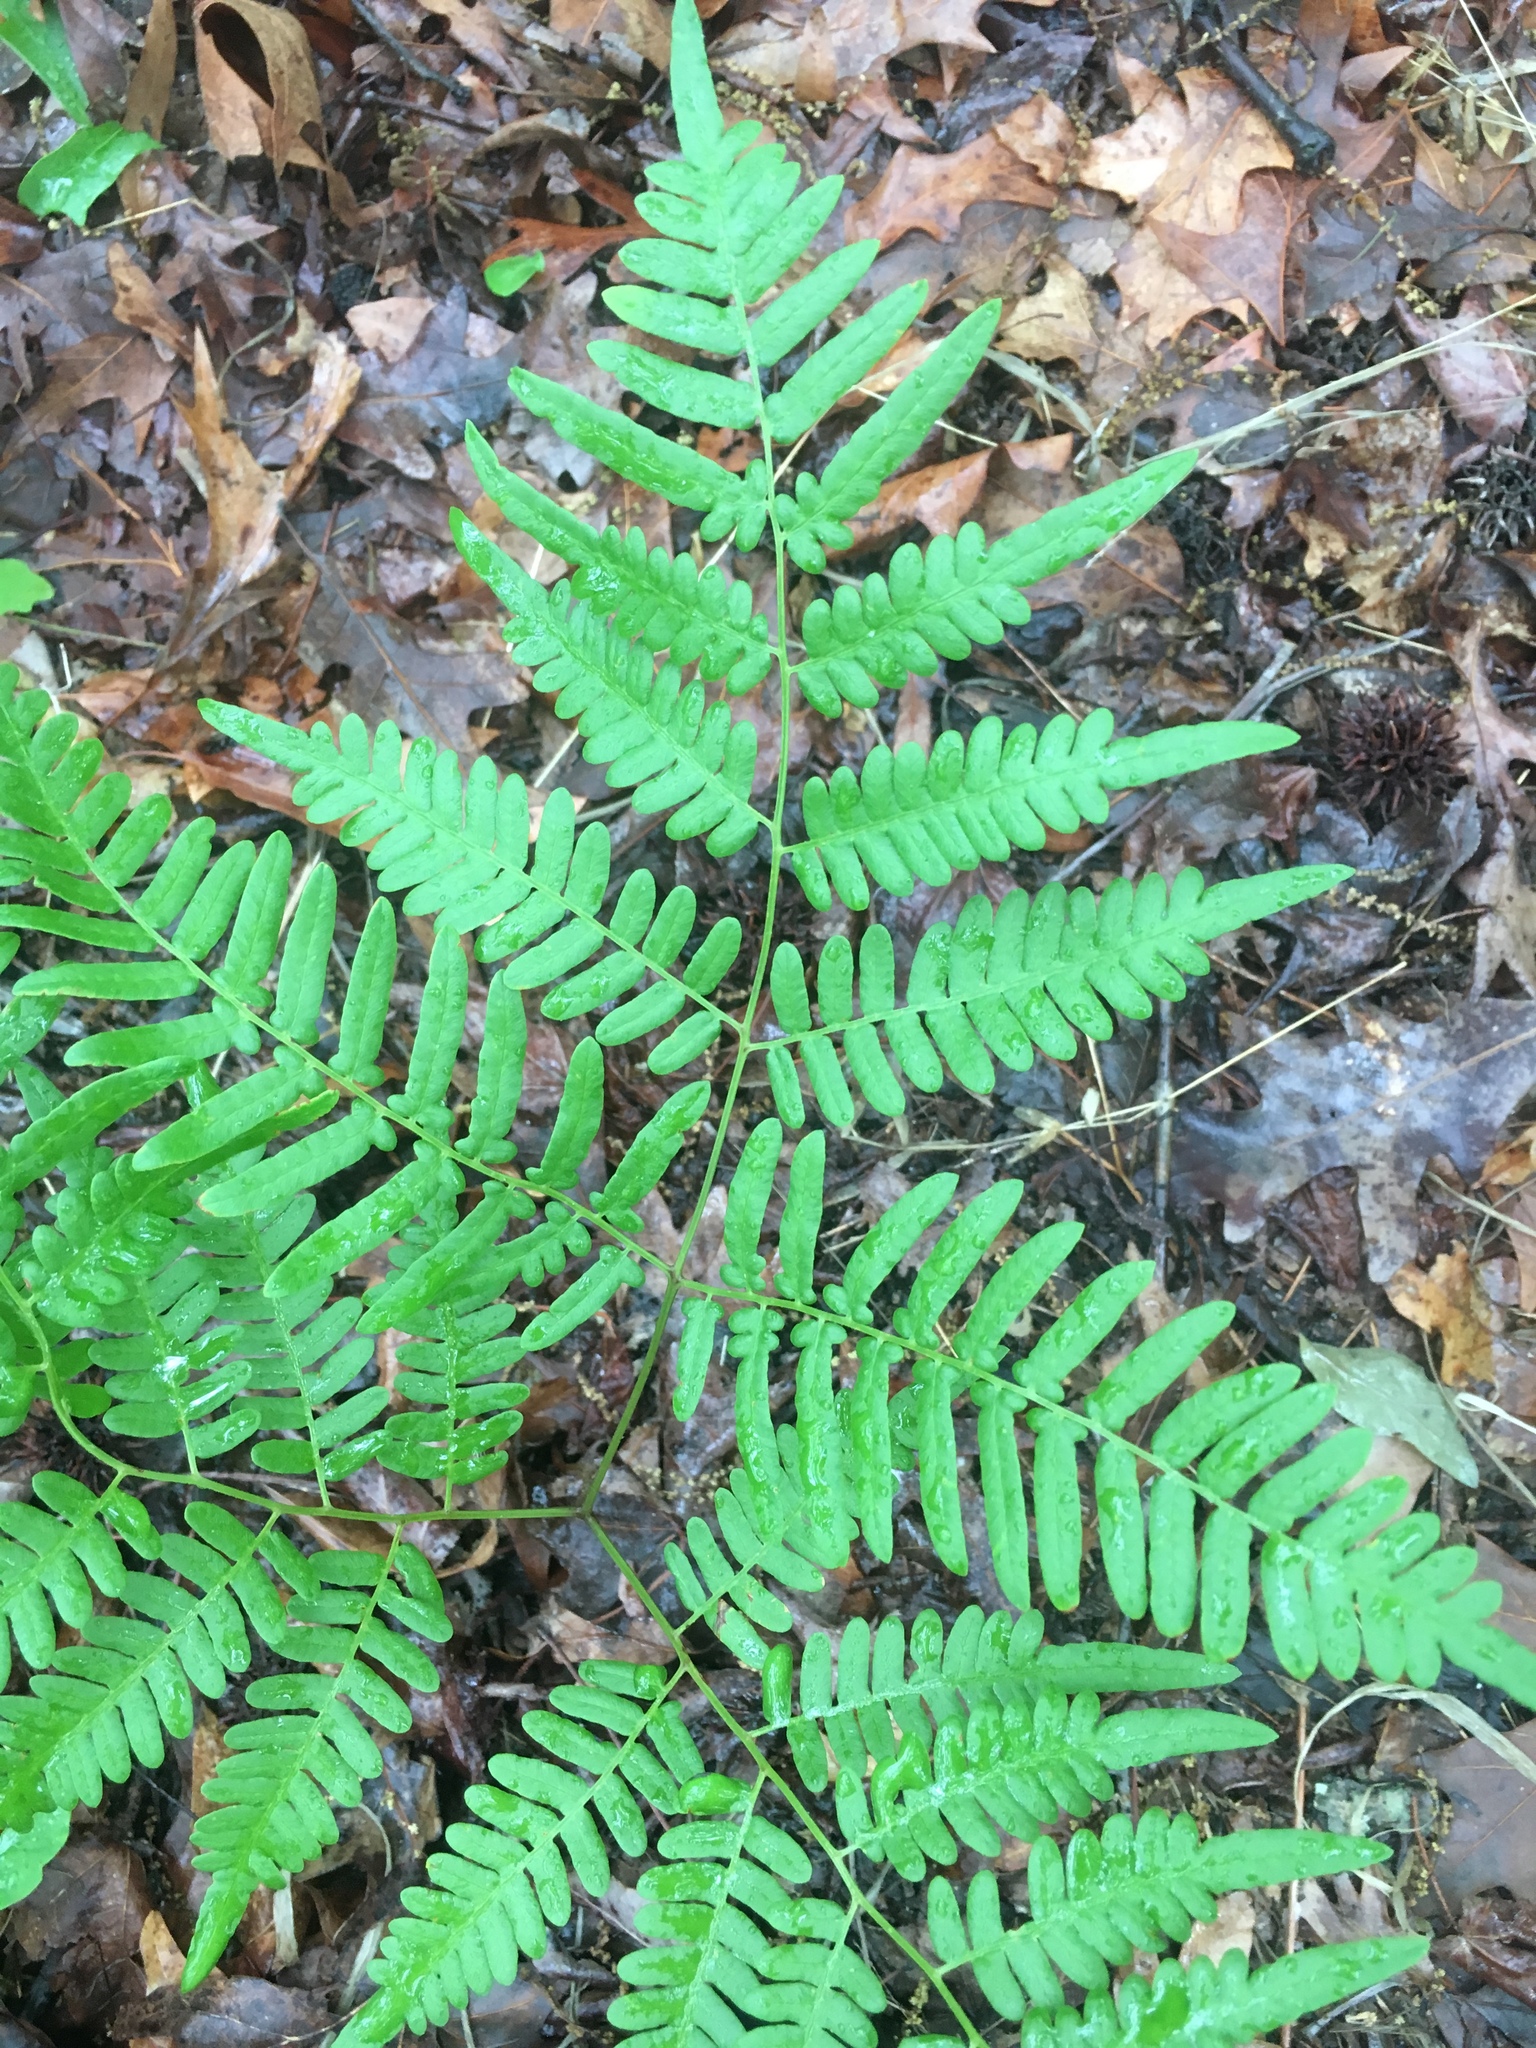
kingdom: Plantae
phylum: Tracheophyta
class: Polypodiopsida
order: Polypodiales
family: Dennstaedtiaceae
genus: Pteridium
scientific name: Pteridium aquilinum
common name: Bracken
